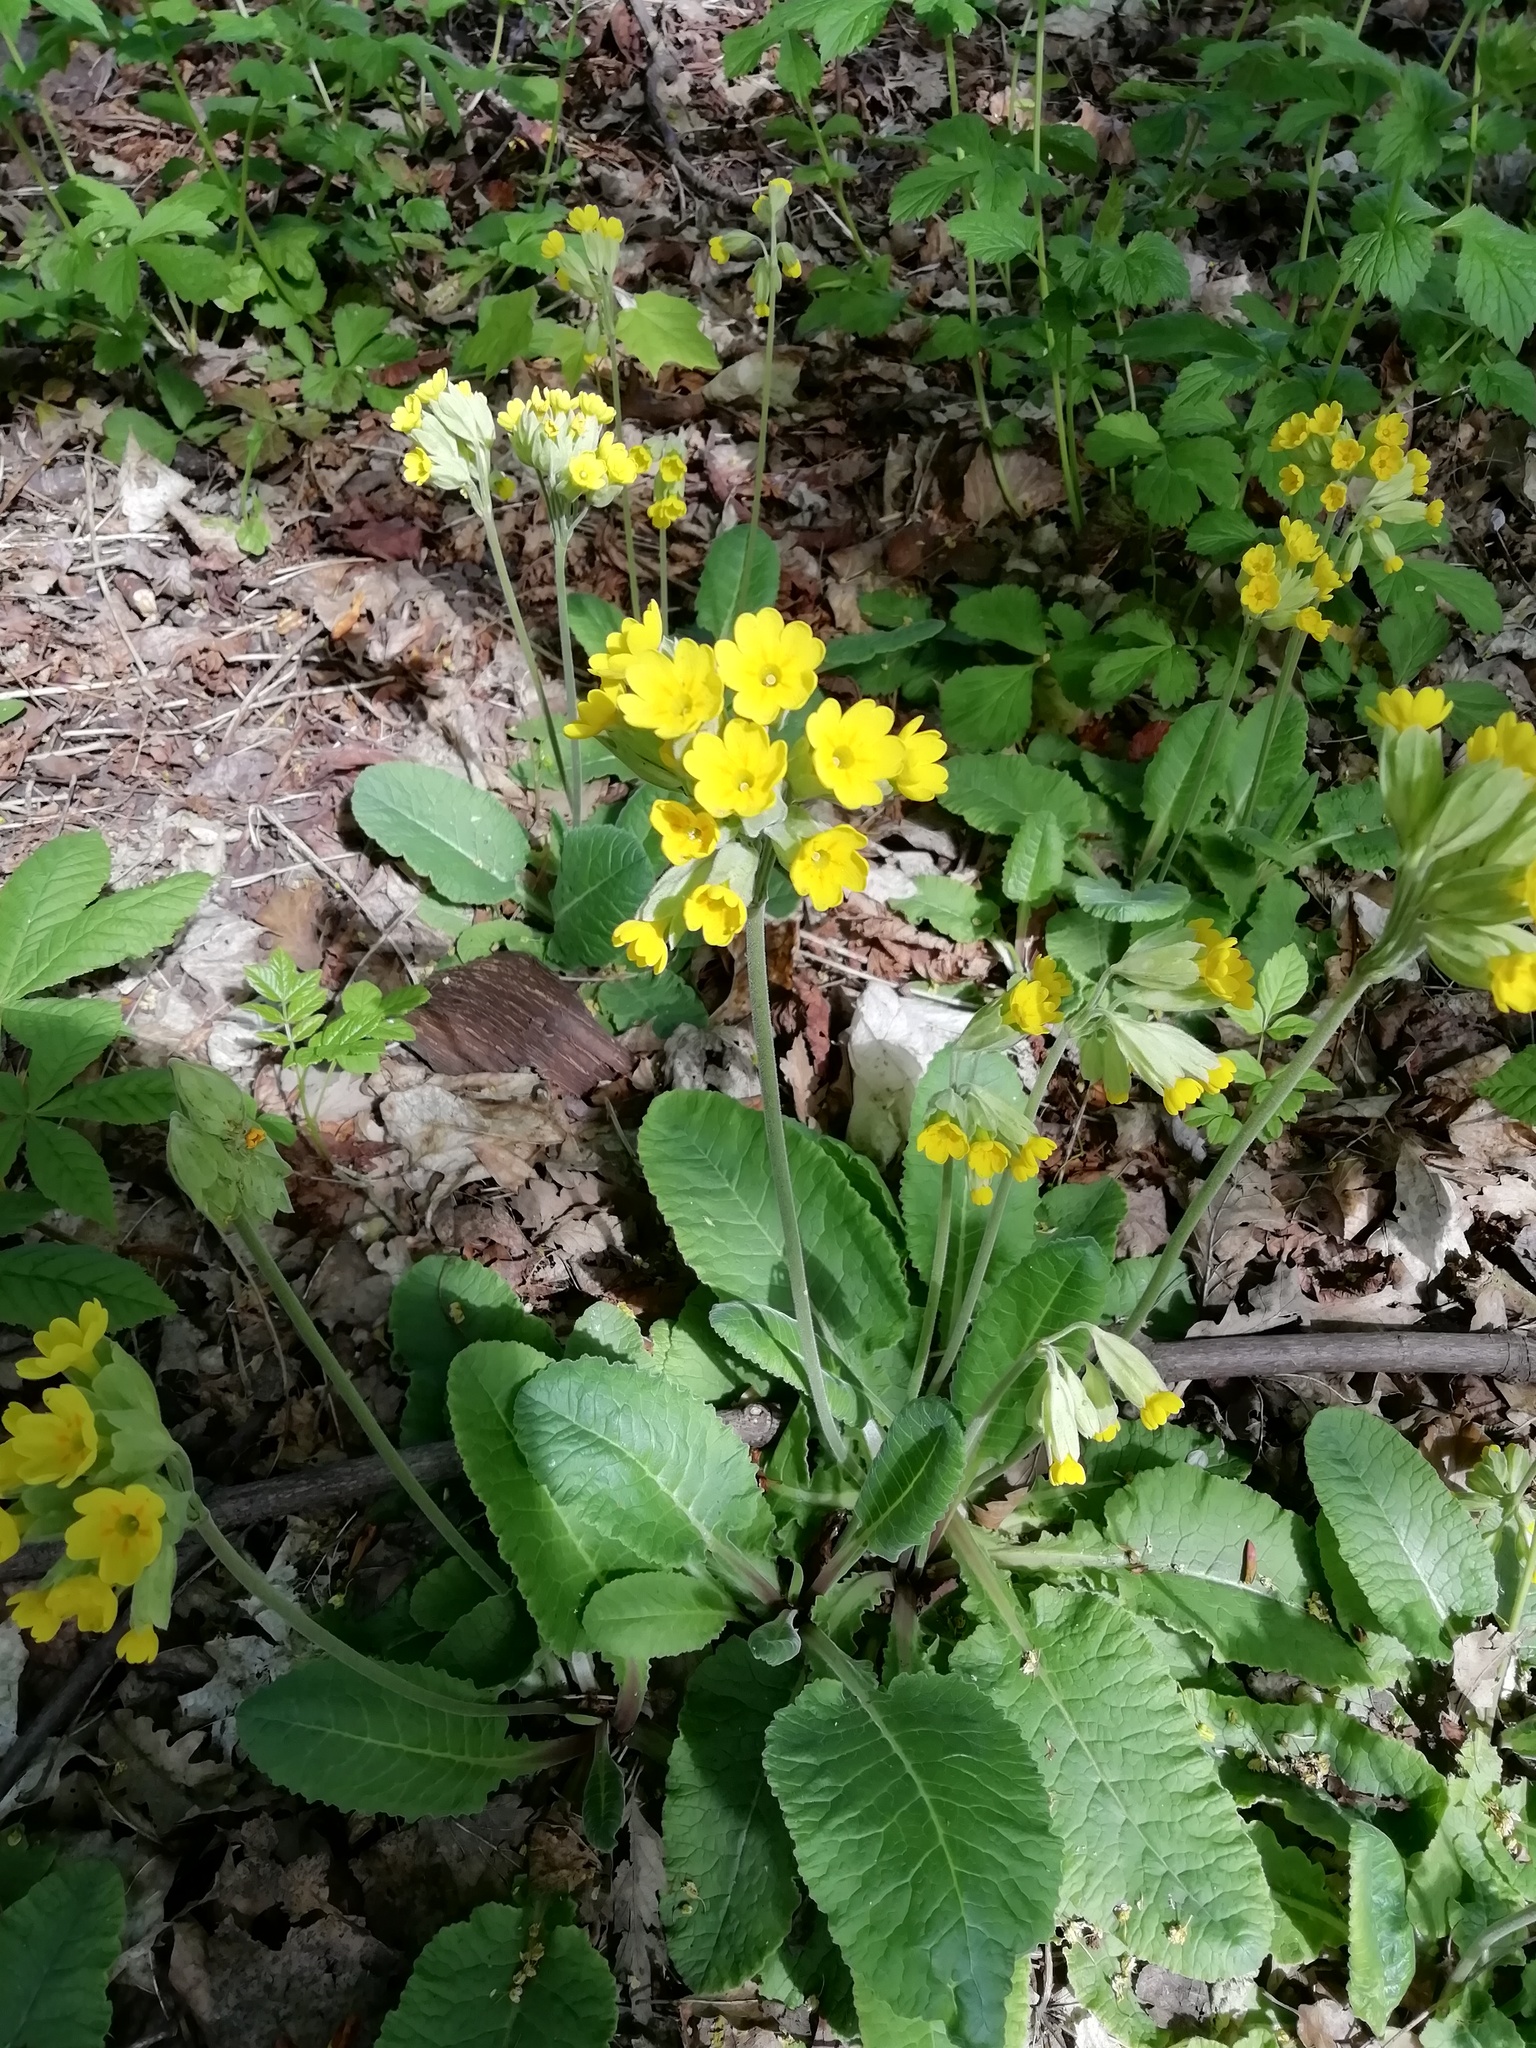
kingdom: Plantae
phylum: Tracheophyta
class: Magnoliopsida
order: Ericales
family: Primulaceae
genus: Primula
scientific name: Primula veris
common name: Cowslip
